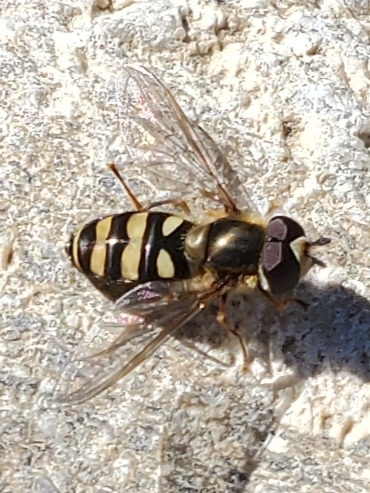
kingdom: Animalia
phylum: Arthropoda
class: Insecta
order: Diptera
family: Syrphidae
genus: Eupeodes
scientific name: Eupeodes
